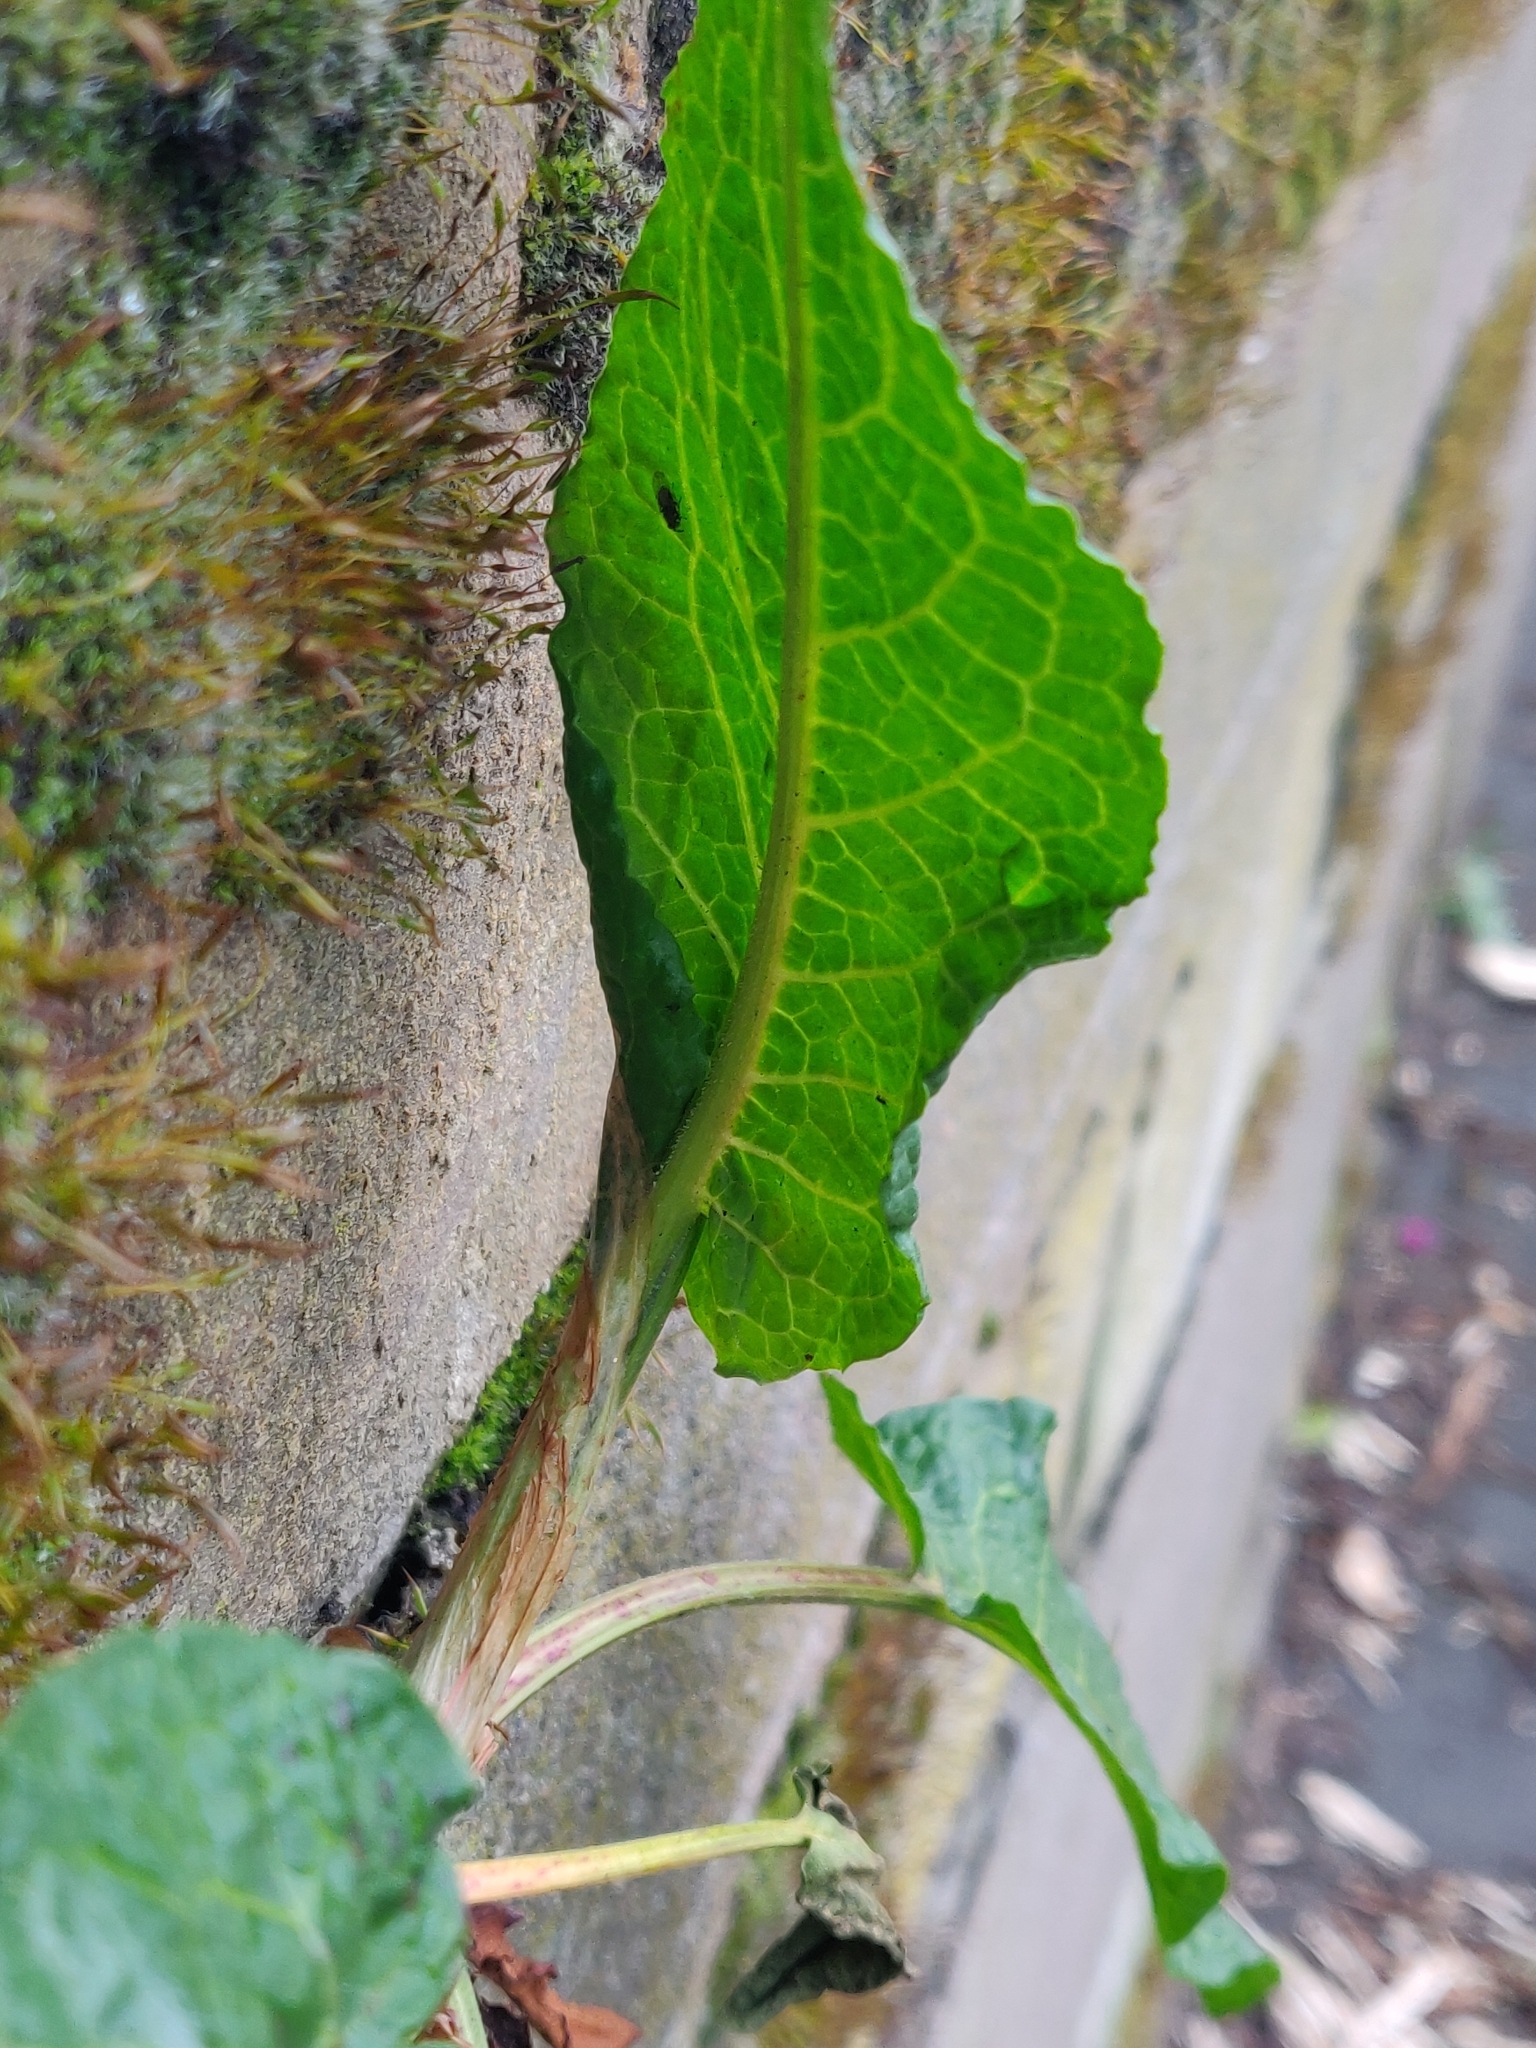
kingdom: Plantae
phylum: Tracheophyta
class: Magnoliopsida
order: Caryophyllales
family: Polygonaceae
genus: Rumex
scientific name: Rumex obtusifolius
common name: Bitter dock
